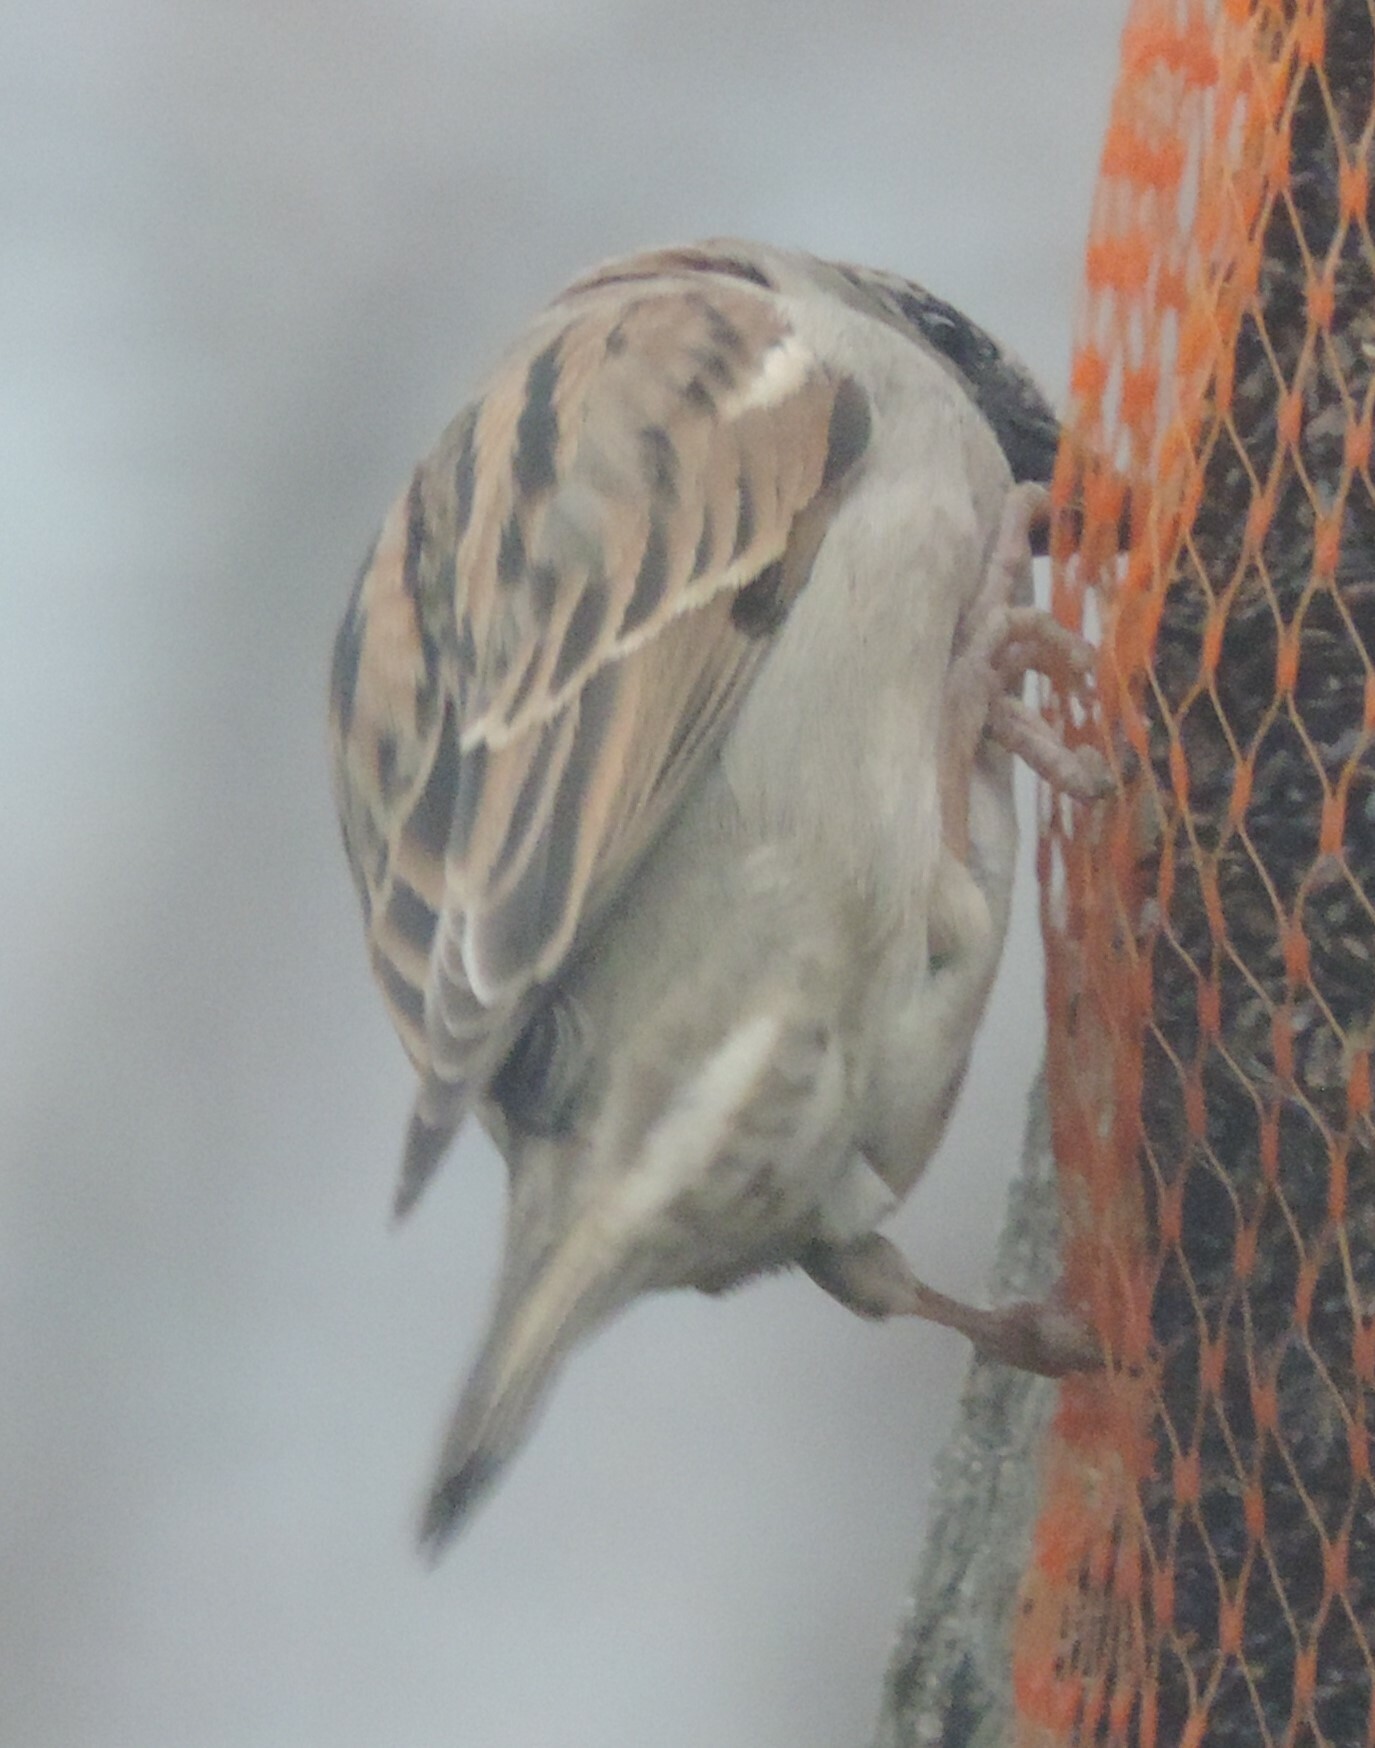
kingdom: Animalia
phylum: Chordata
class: Aves
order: Passeriformes
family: Passeridae
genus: Passer
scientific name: Passer domesticus
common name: House sparrow
